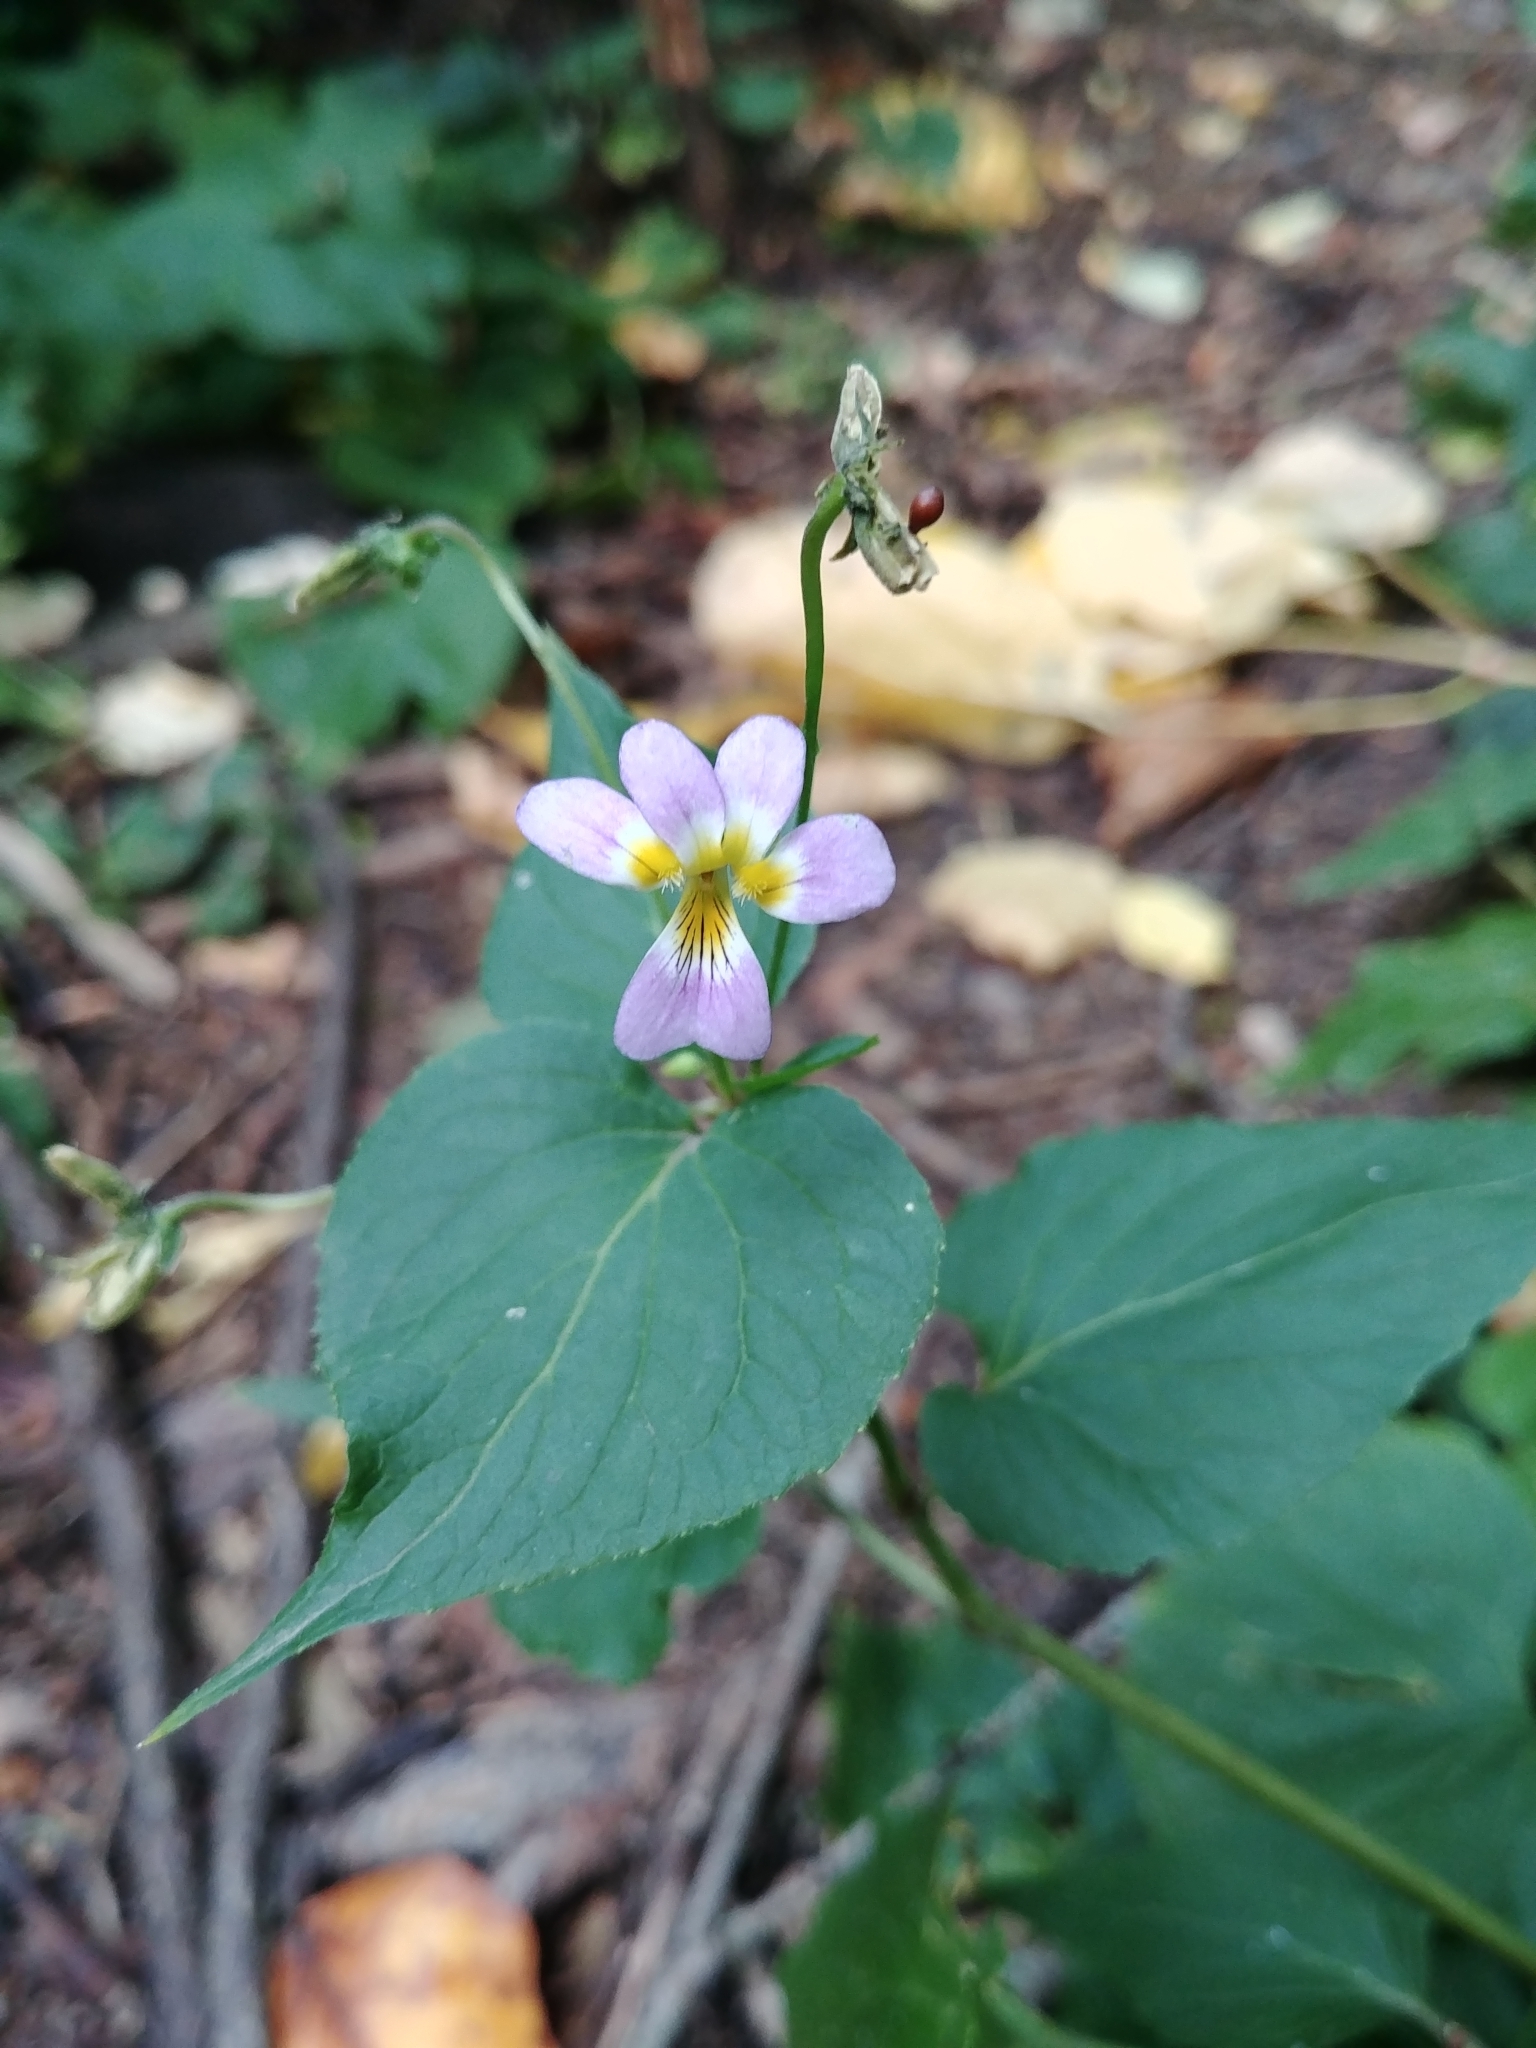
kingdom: Plantae
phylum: Tracheophyta
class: Magnoliopsida
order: Malpighiales
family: Violaceae
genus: Viola
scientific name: Viola canadensis
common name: Canada violet
